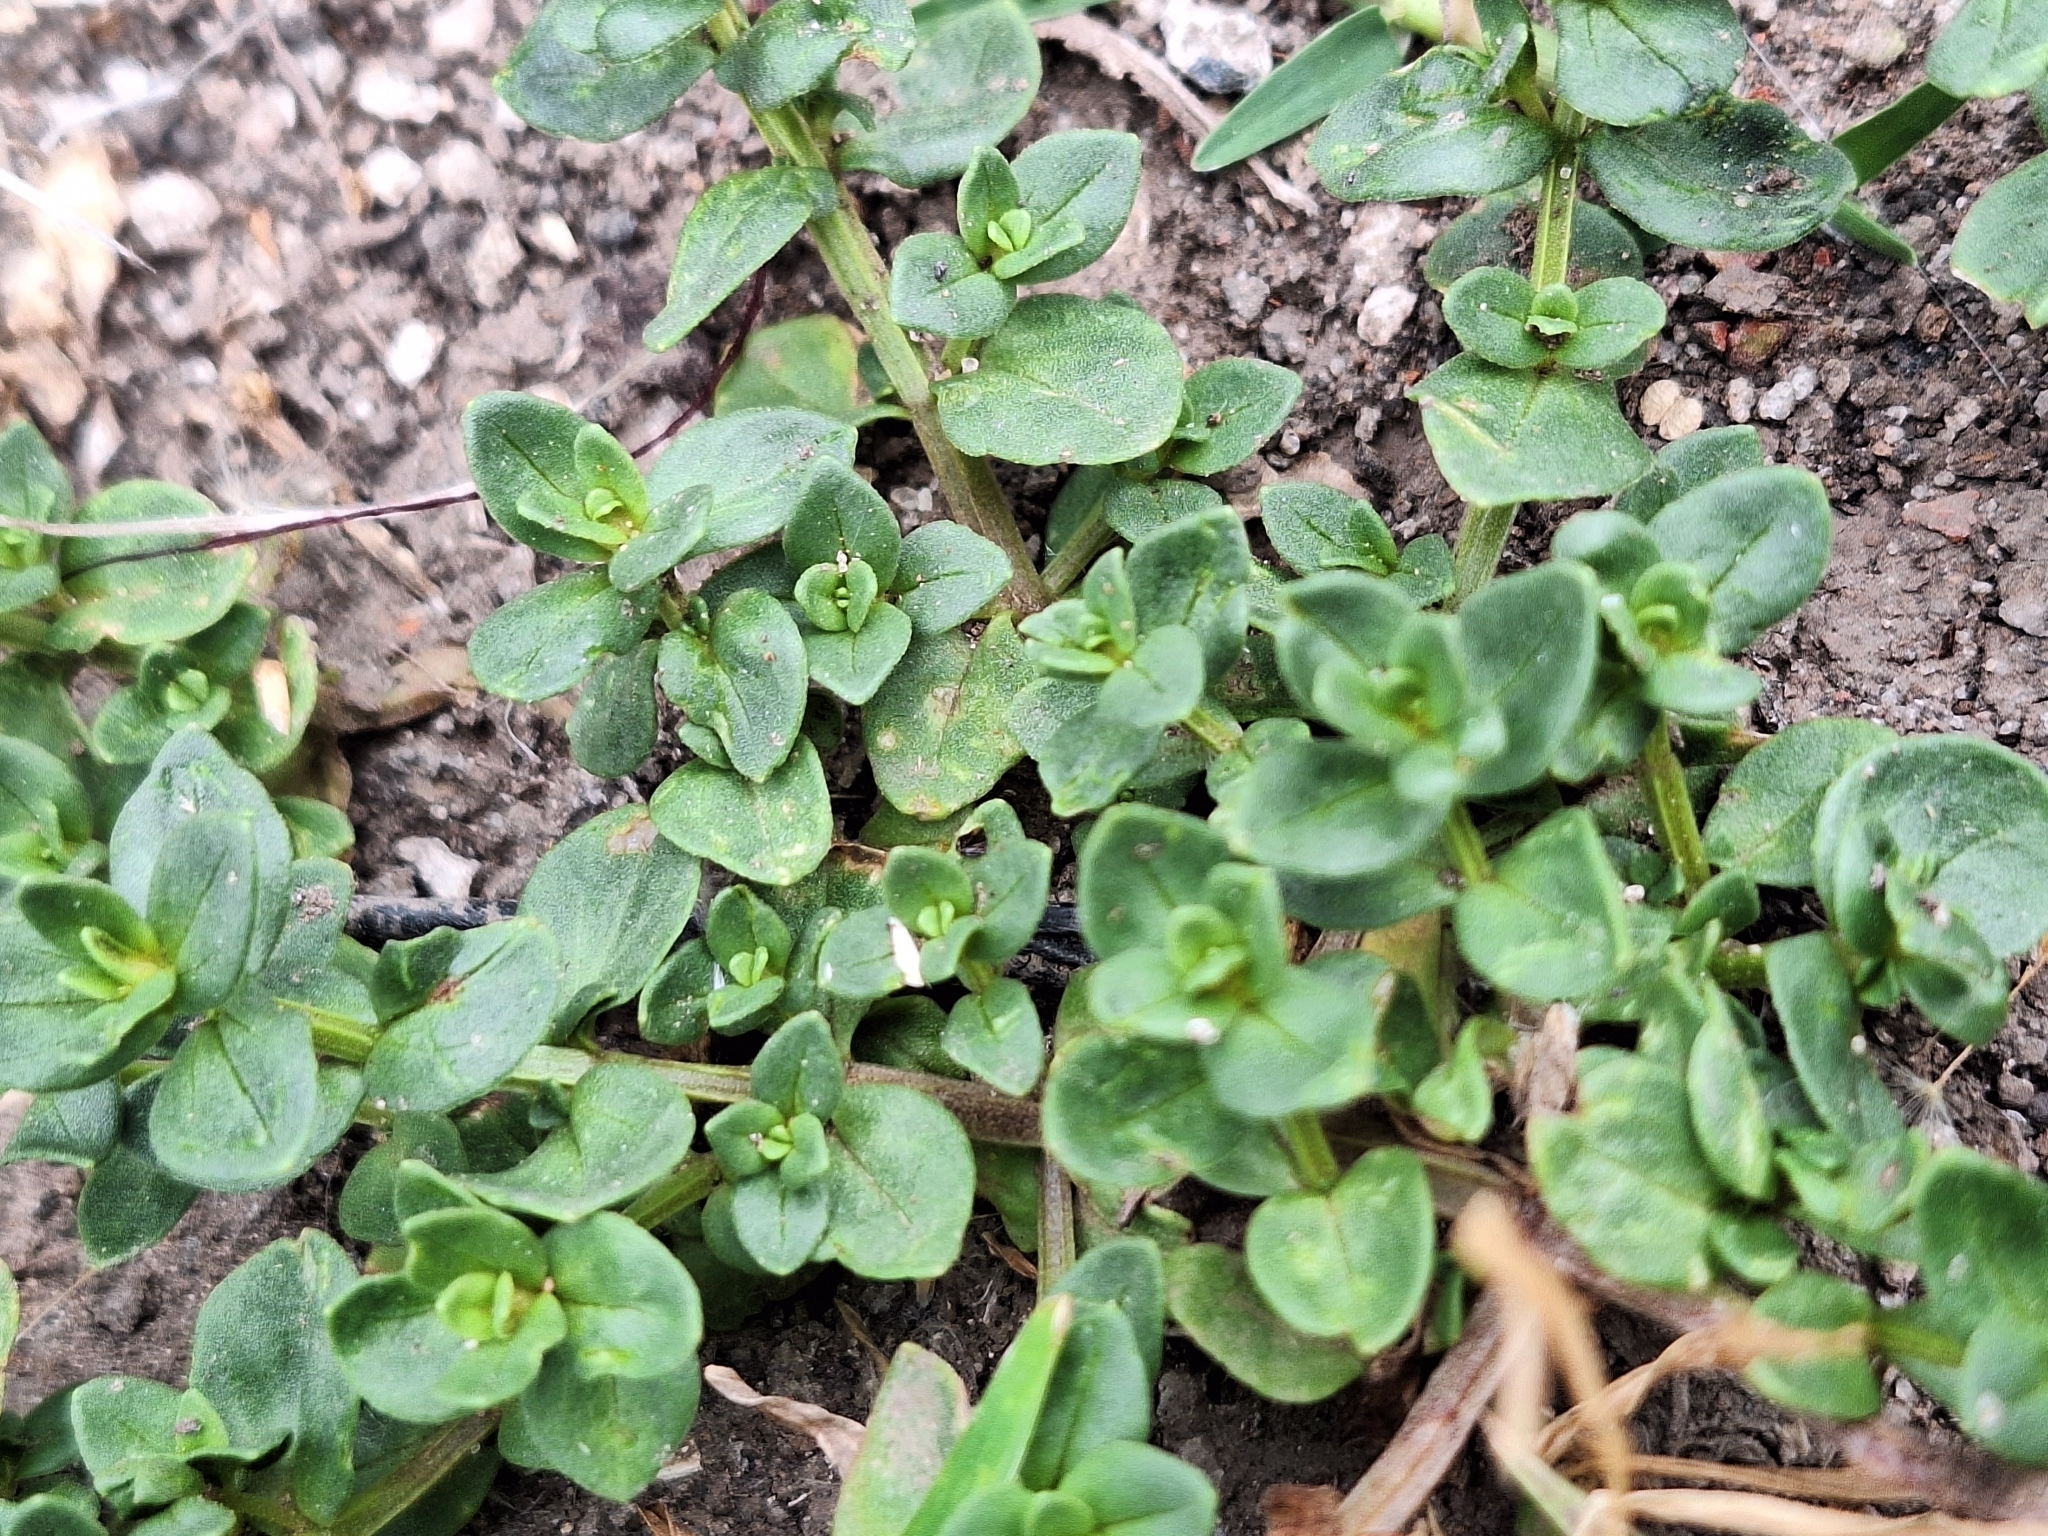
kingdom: Plantae
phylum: Tracheophyta
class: Magnoliopsida
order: Ericales
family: Primulaceae
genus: Lysimachia
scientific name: Lysimachia arvensis
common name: Scarlet pimpernel
